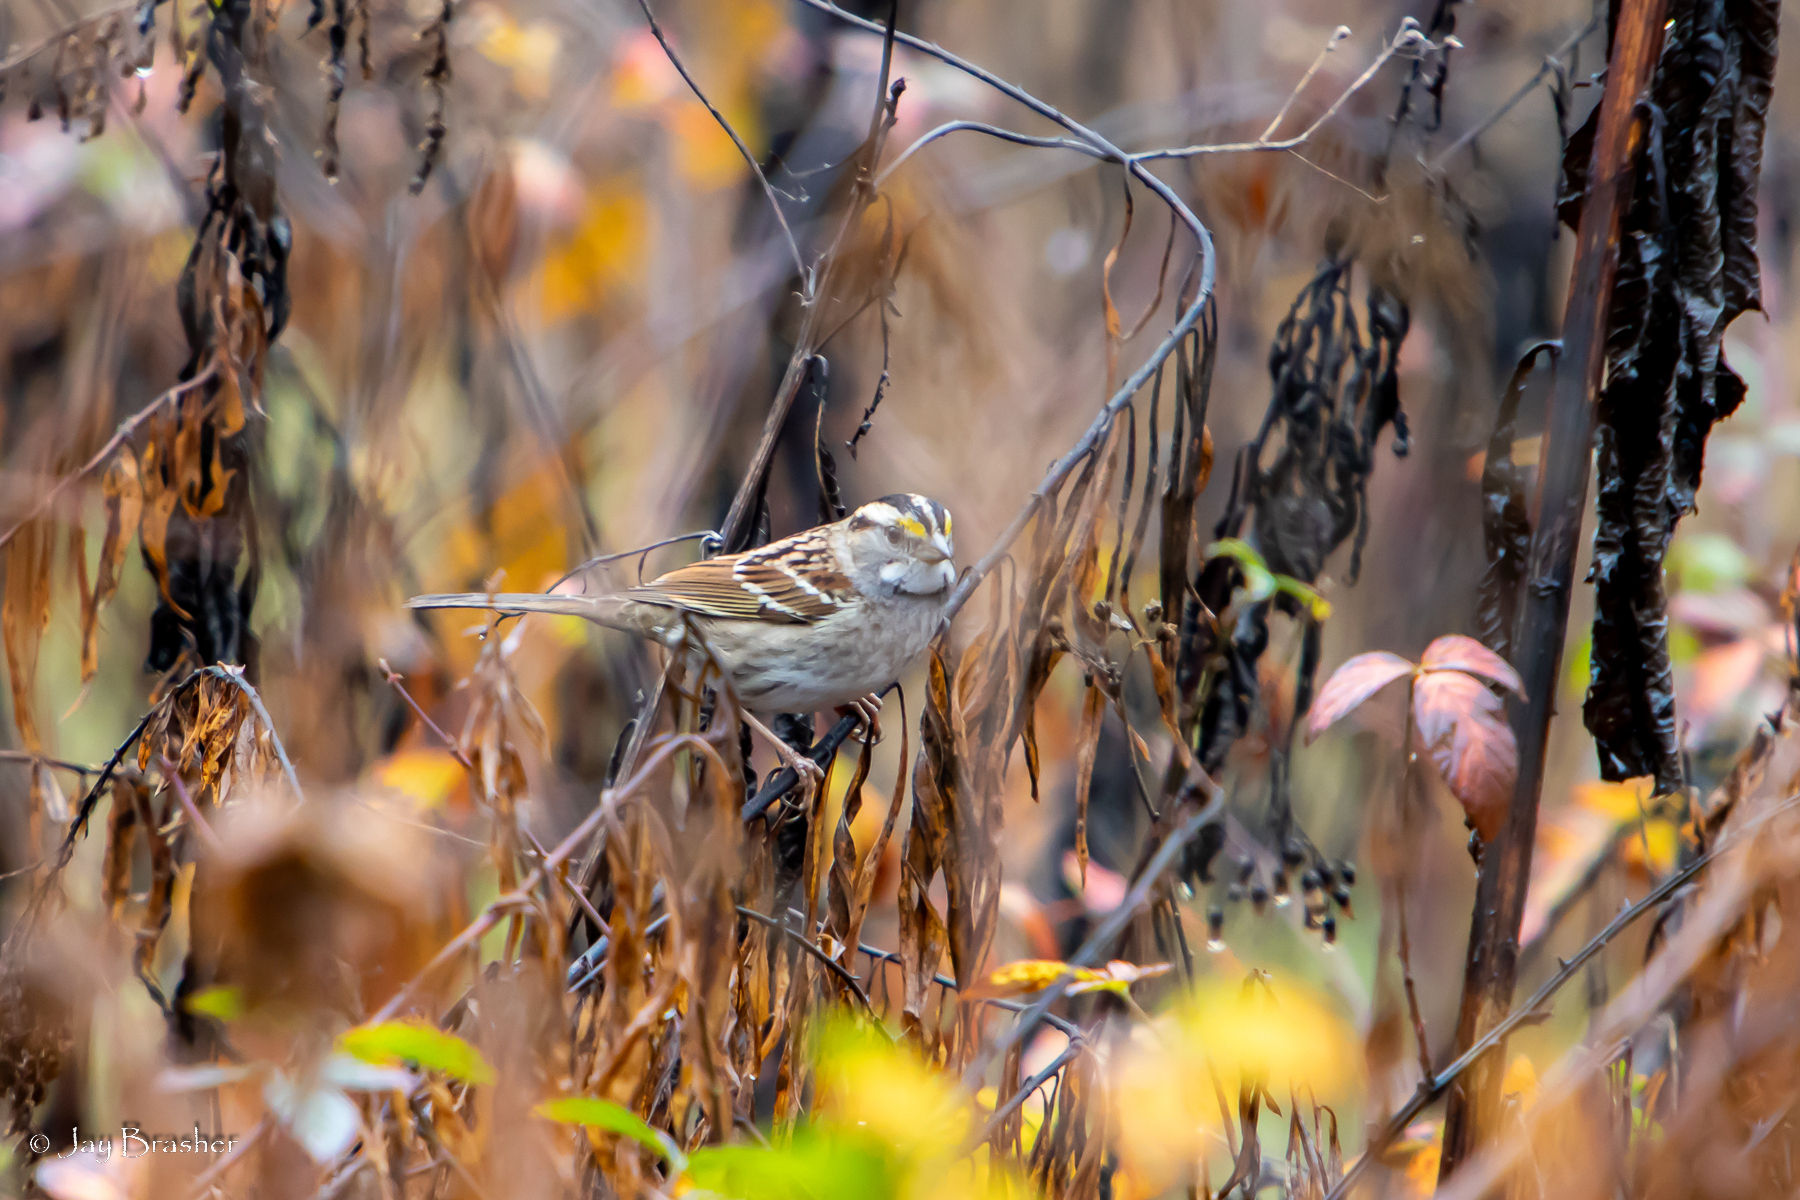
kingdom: Animalia
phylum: Chordata
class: Aves
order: Passeriformes
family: Passerellidae
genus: Zonotrichia
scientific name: Zonotrichia albicollis
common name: White-throated sparrow
